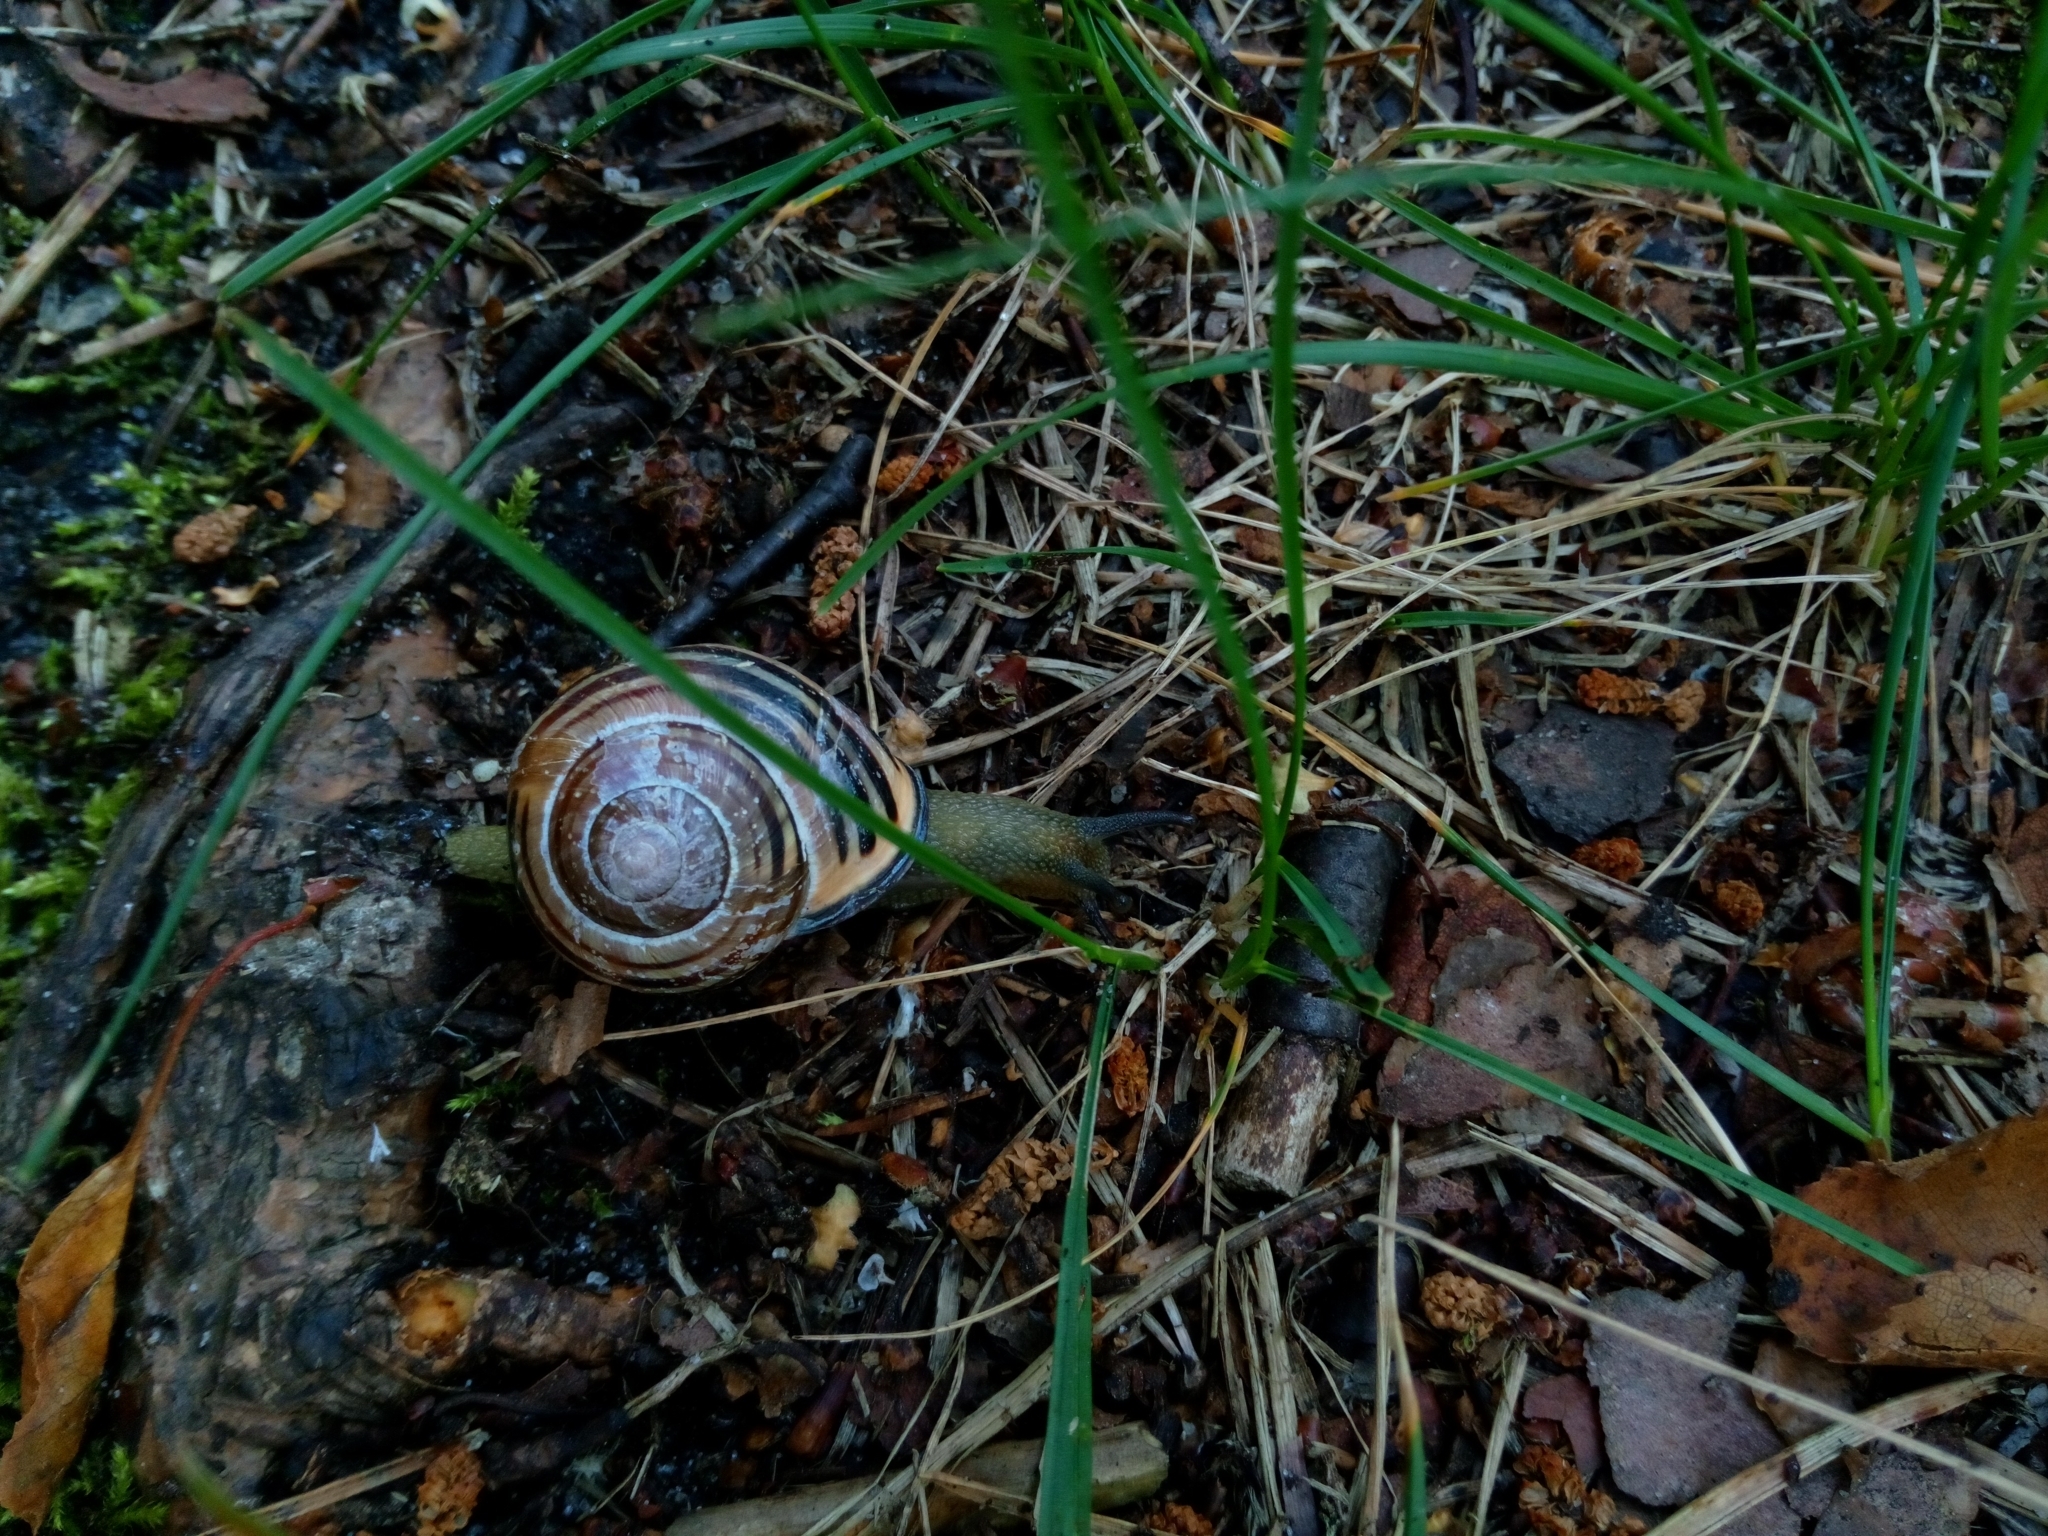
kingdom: Animalia
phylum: Mollusca
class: Gastropoda
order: Stylommatophora
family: Helicidae
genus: Cepaea
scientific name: Cepaea nemoralis
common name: Grovesnail
